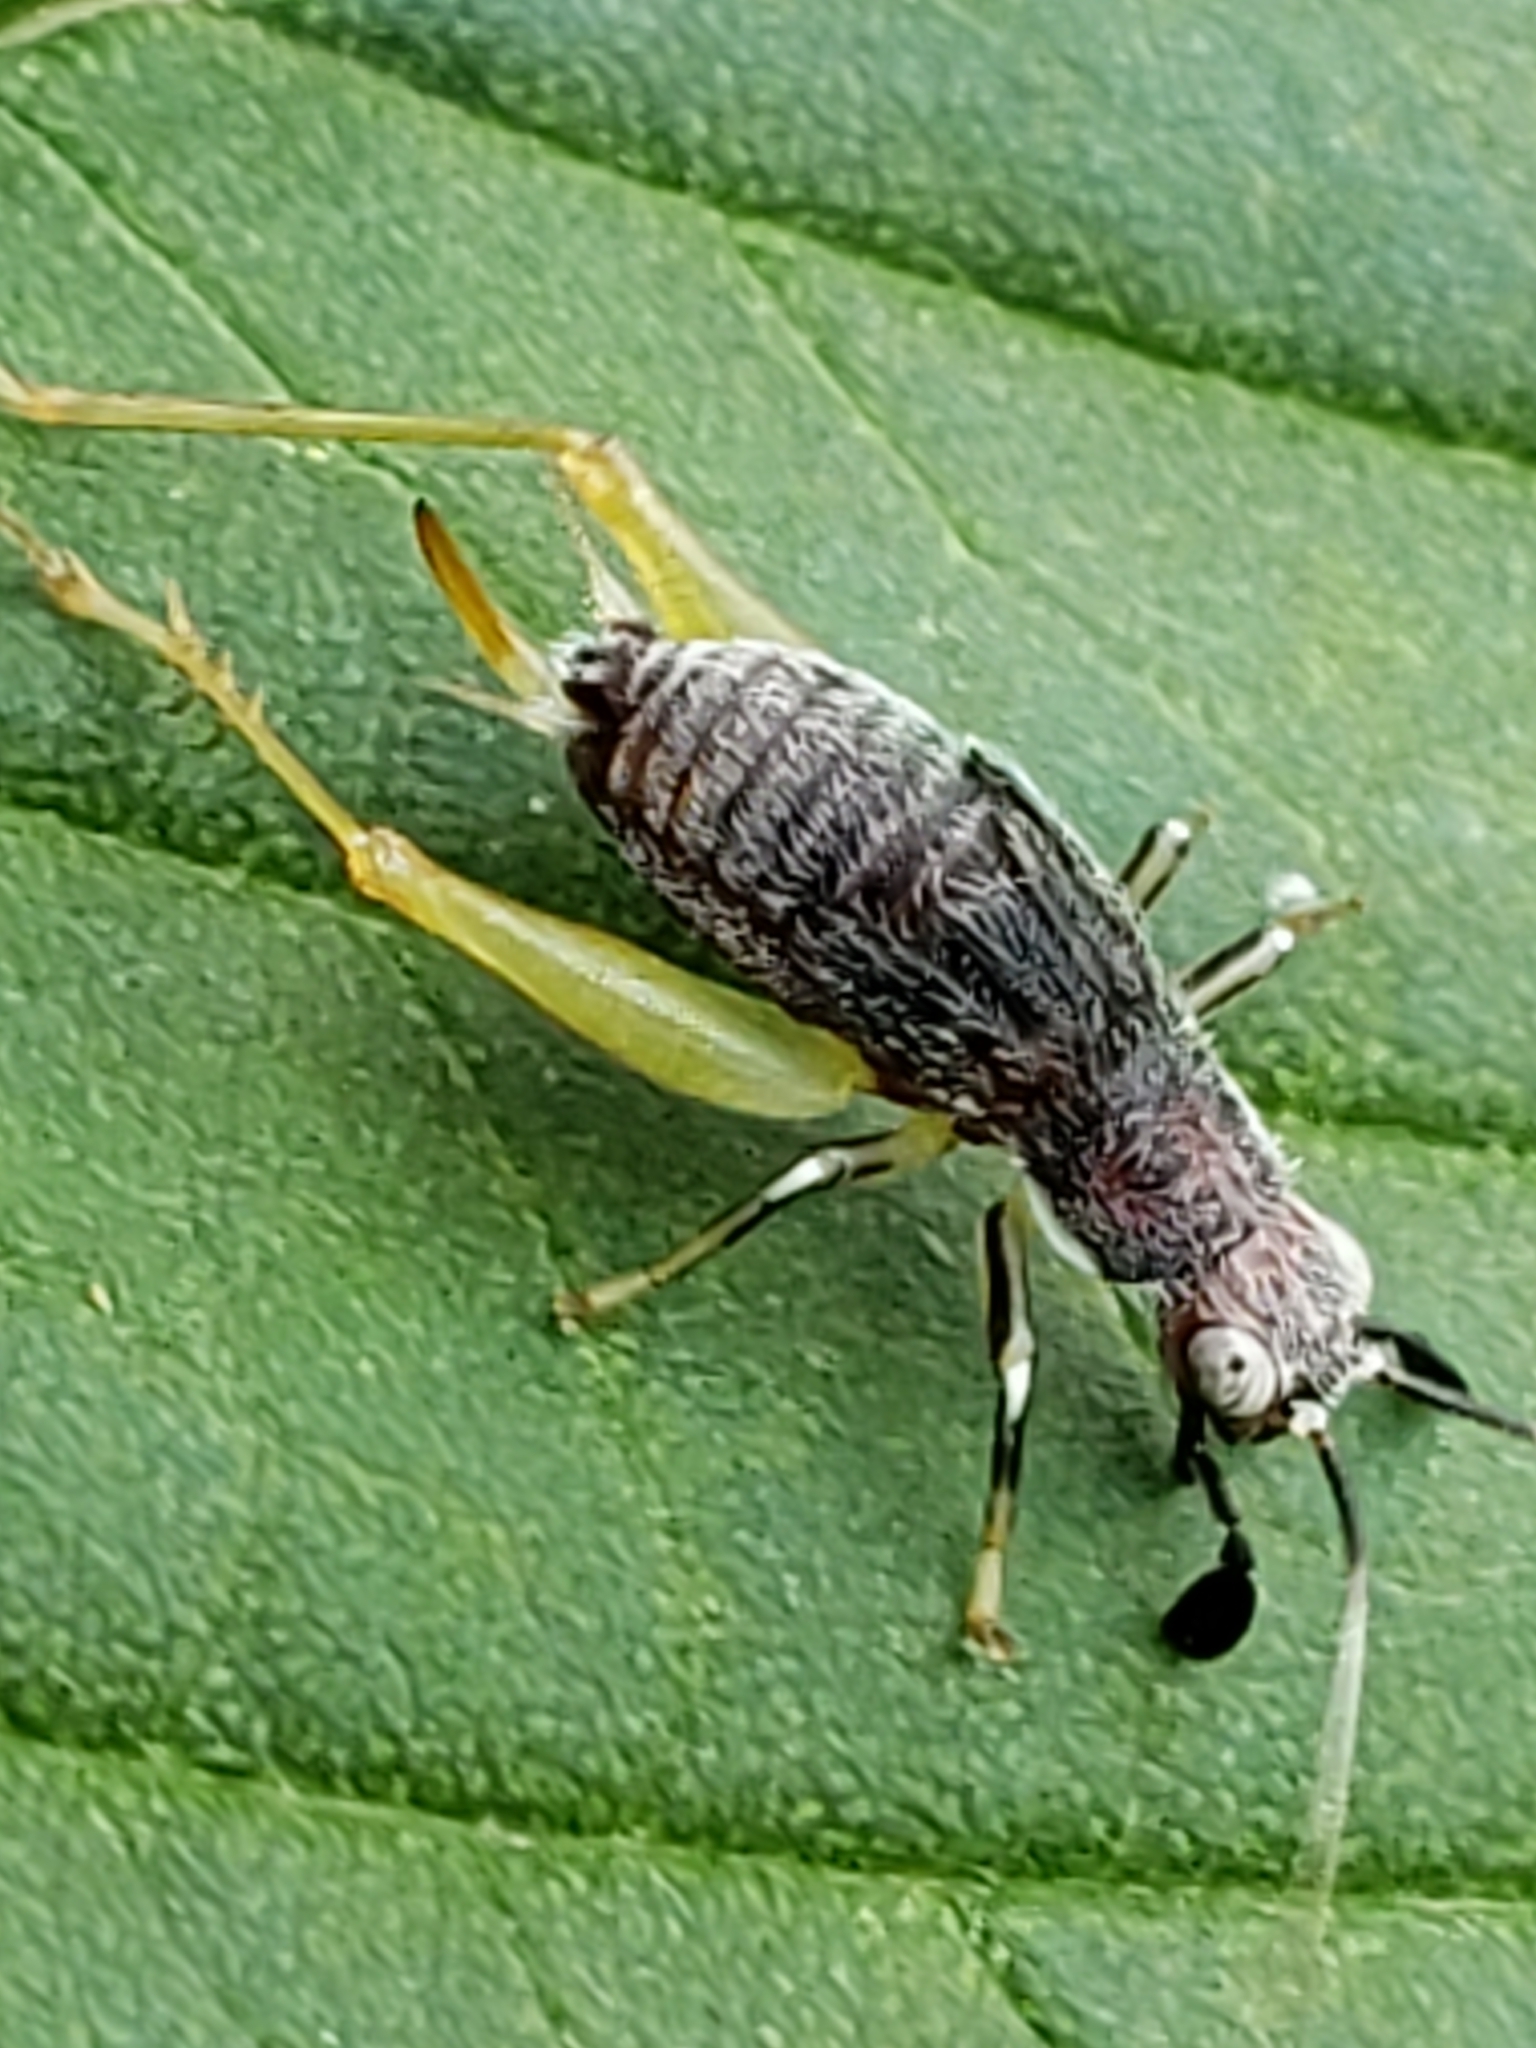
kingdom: Animalia
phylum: Arthropoda
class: Insecta
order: Orthoptera
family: Trigonidiidae
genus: Phyllopalpus
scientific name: Phyllopalpus pulchellus
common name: Handsome trig
